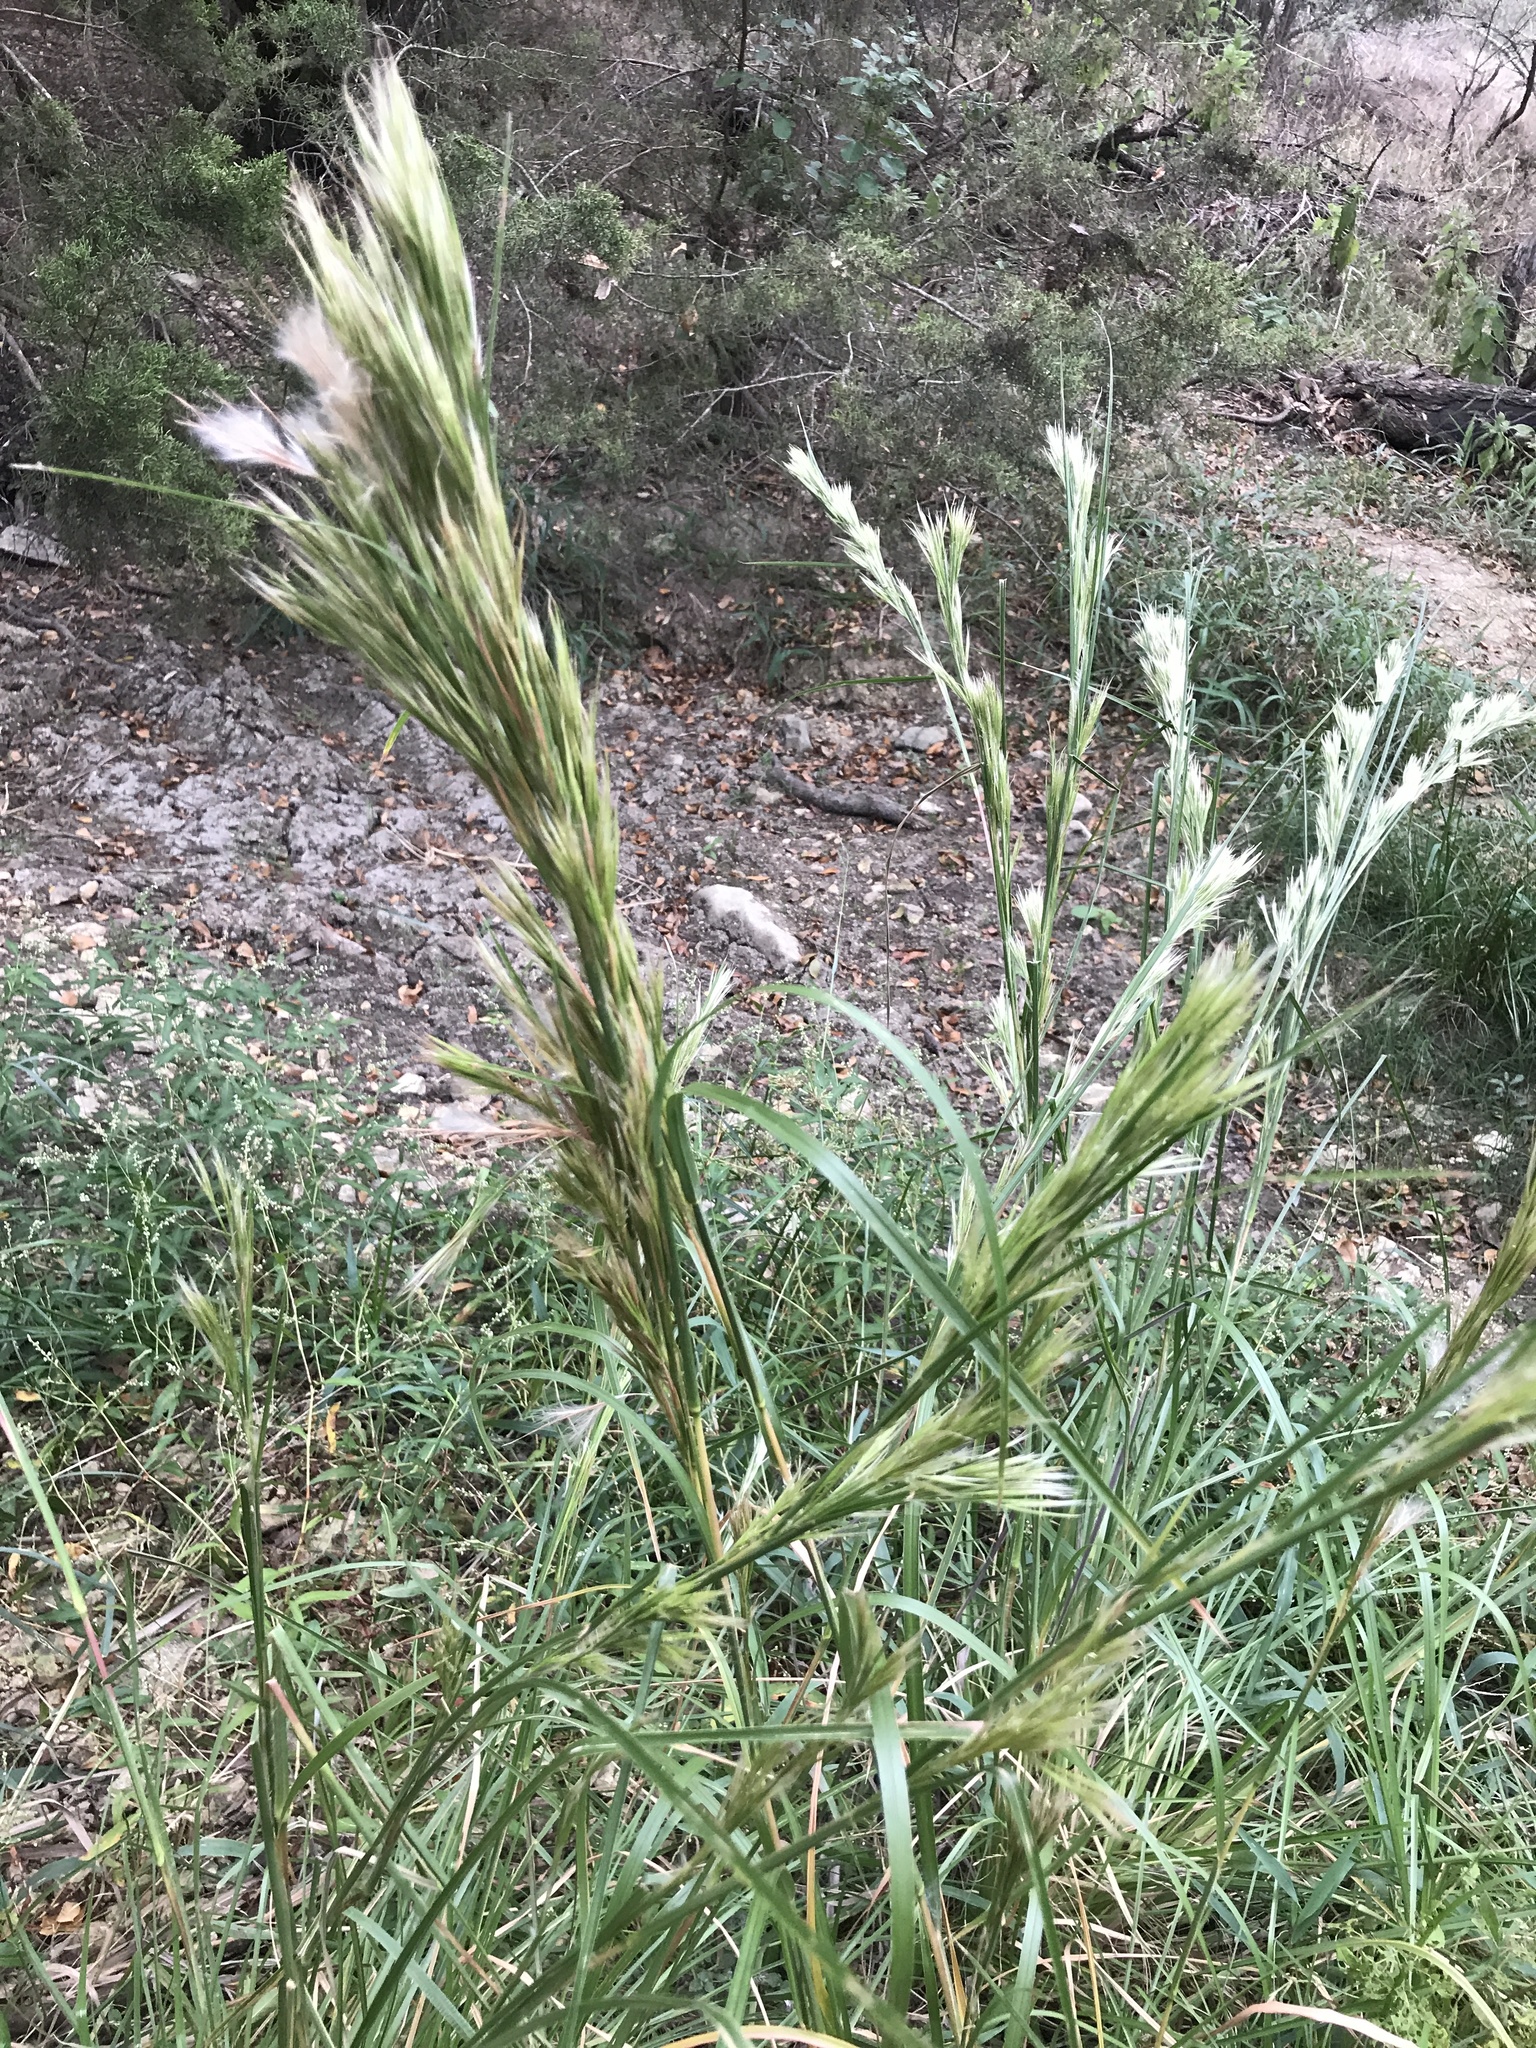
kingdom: Plantae
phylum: Tracheophyta
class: Liliopsida
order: Poales
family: Poaceae
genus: Andropogon
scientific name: Andropogon tenuispatheus
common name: Bushy bluestem
